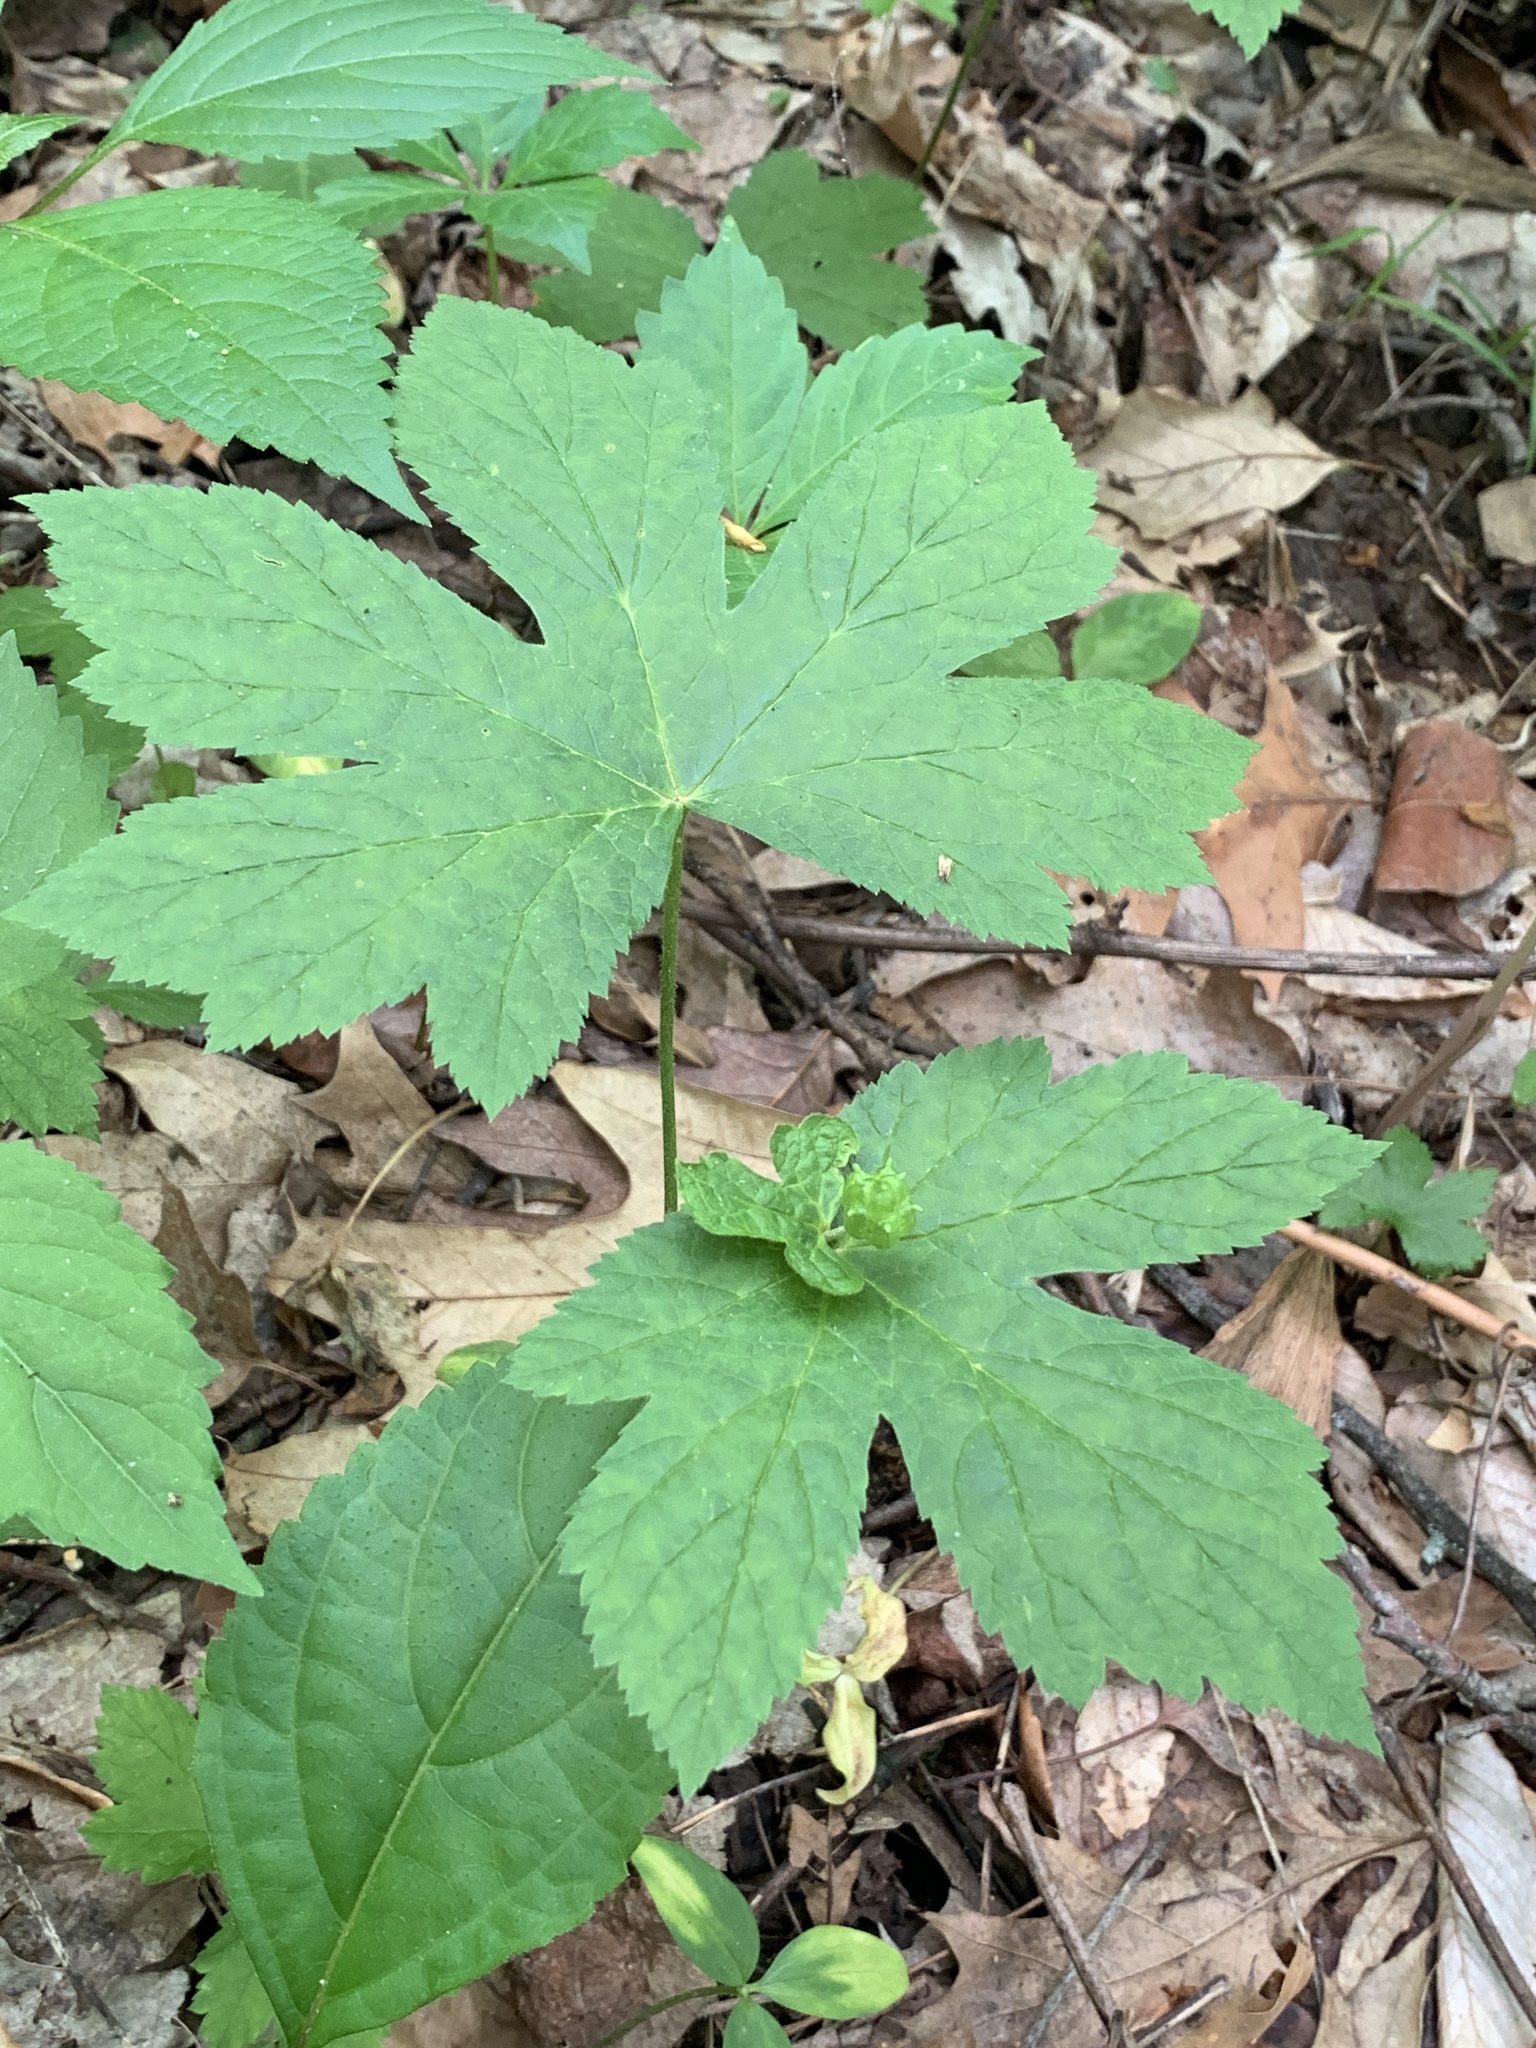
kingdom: Plantae
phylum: Tracheophyta
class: Magnoliopsida
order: Ranunculales
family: Ranunculaceae
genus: Hydrastis
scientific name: Hydrastis canadensis
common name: Goldenseal
